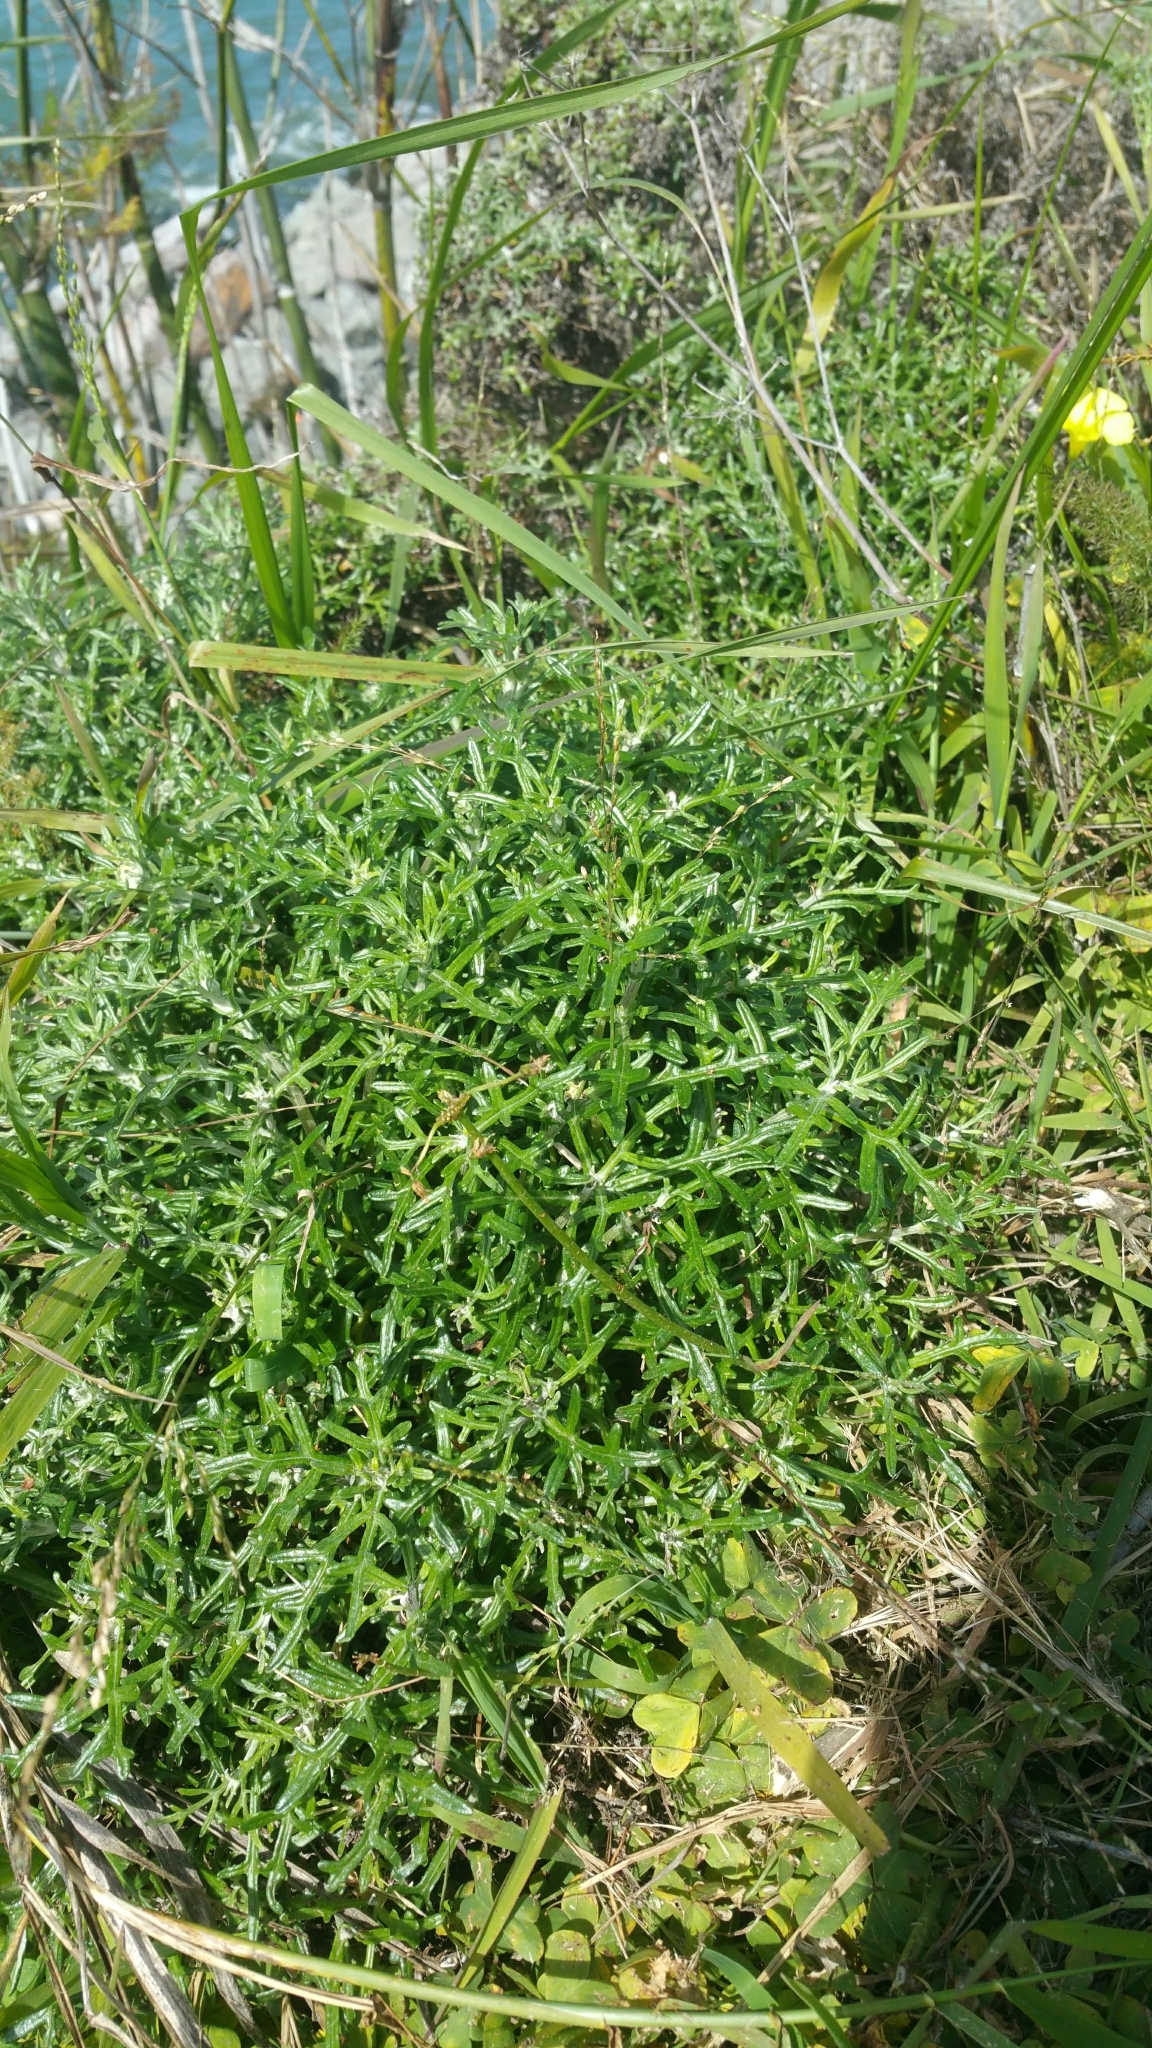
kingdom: Plantae
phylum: Tracheophyta
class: Magnoliopsida
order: Asterales
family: Asteraceae
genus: Eriophyllum
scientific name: Eriophyllum staechadifolium
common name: Lizardtail
